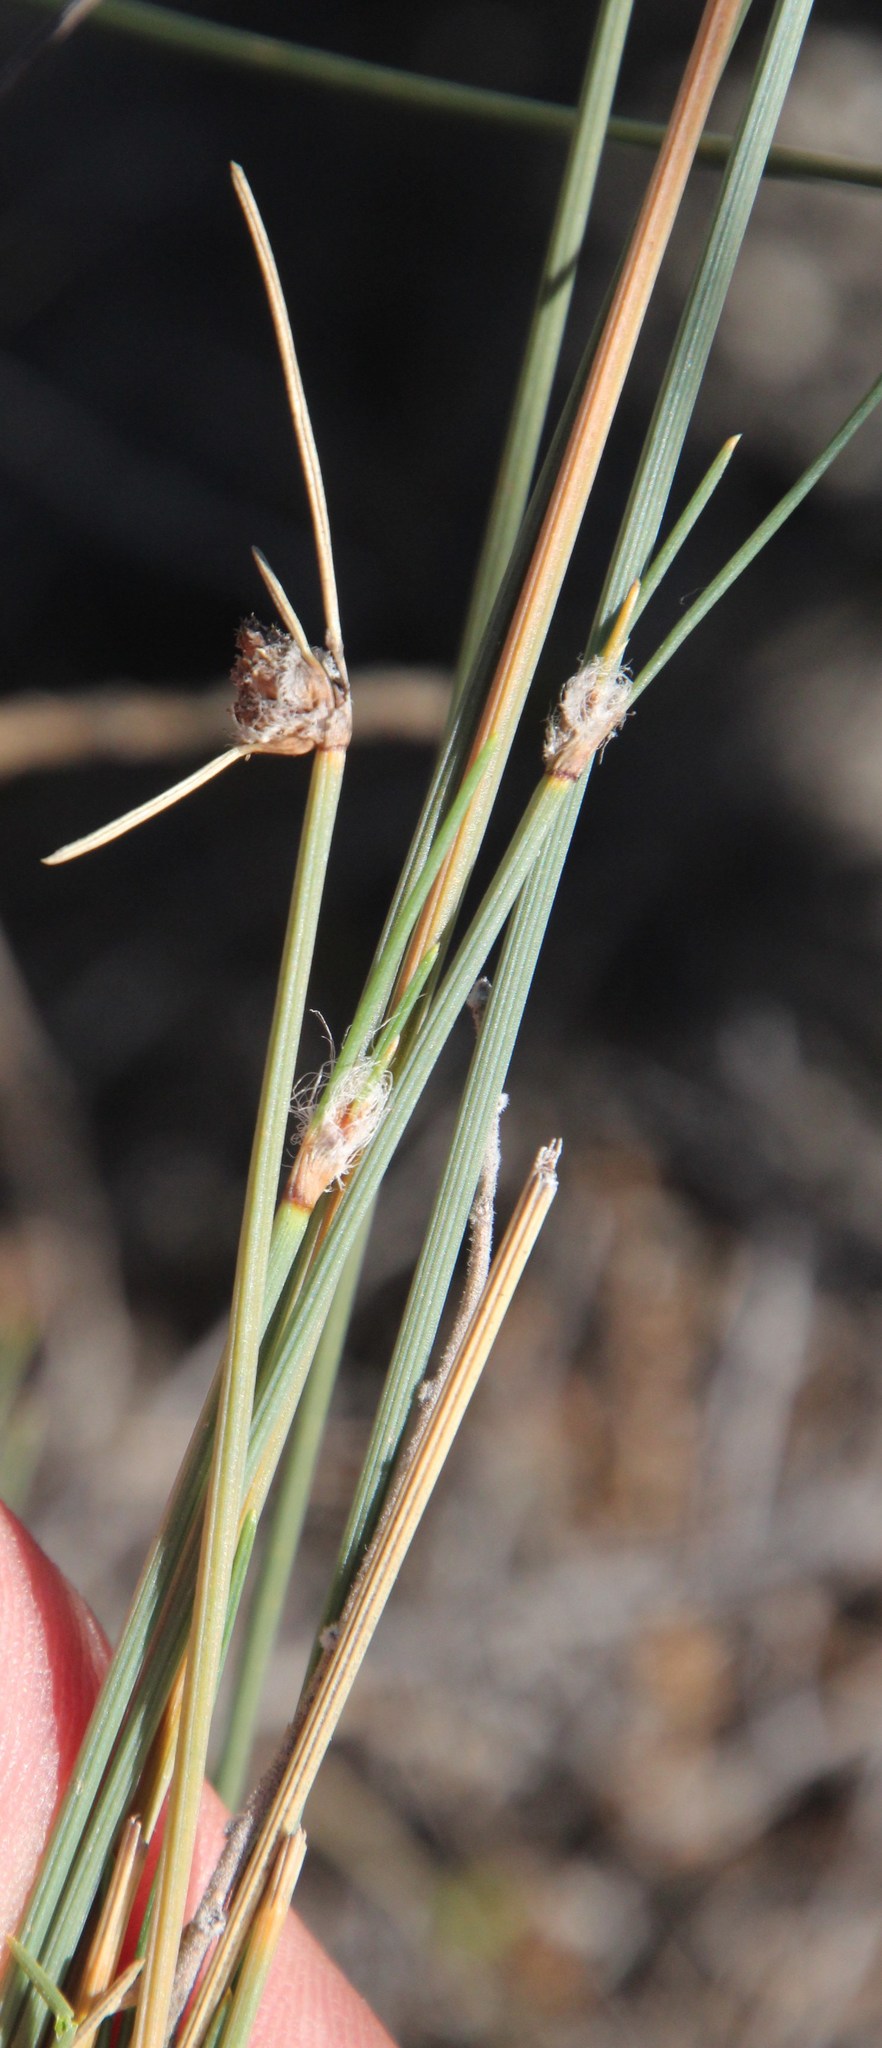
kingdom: Plantae
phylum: Tracheophyta
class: Liliopsida
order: Poales
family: Cyperaceae
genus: Ficinia
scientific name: Ficinia paradoxa
